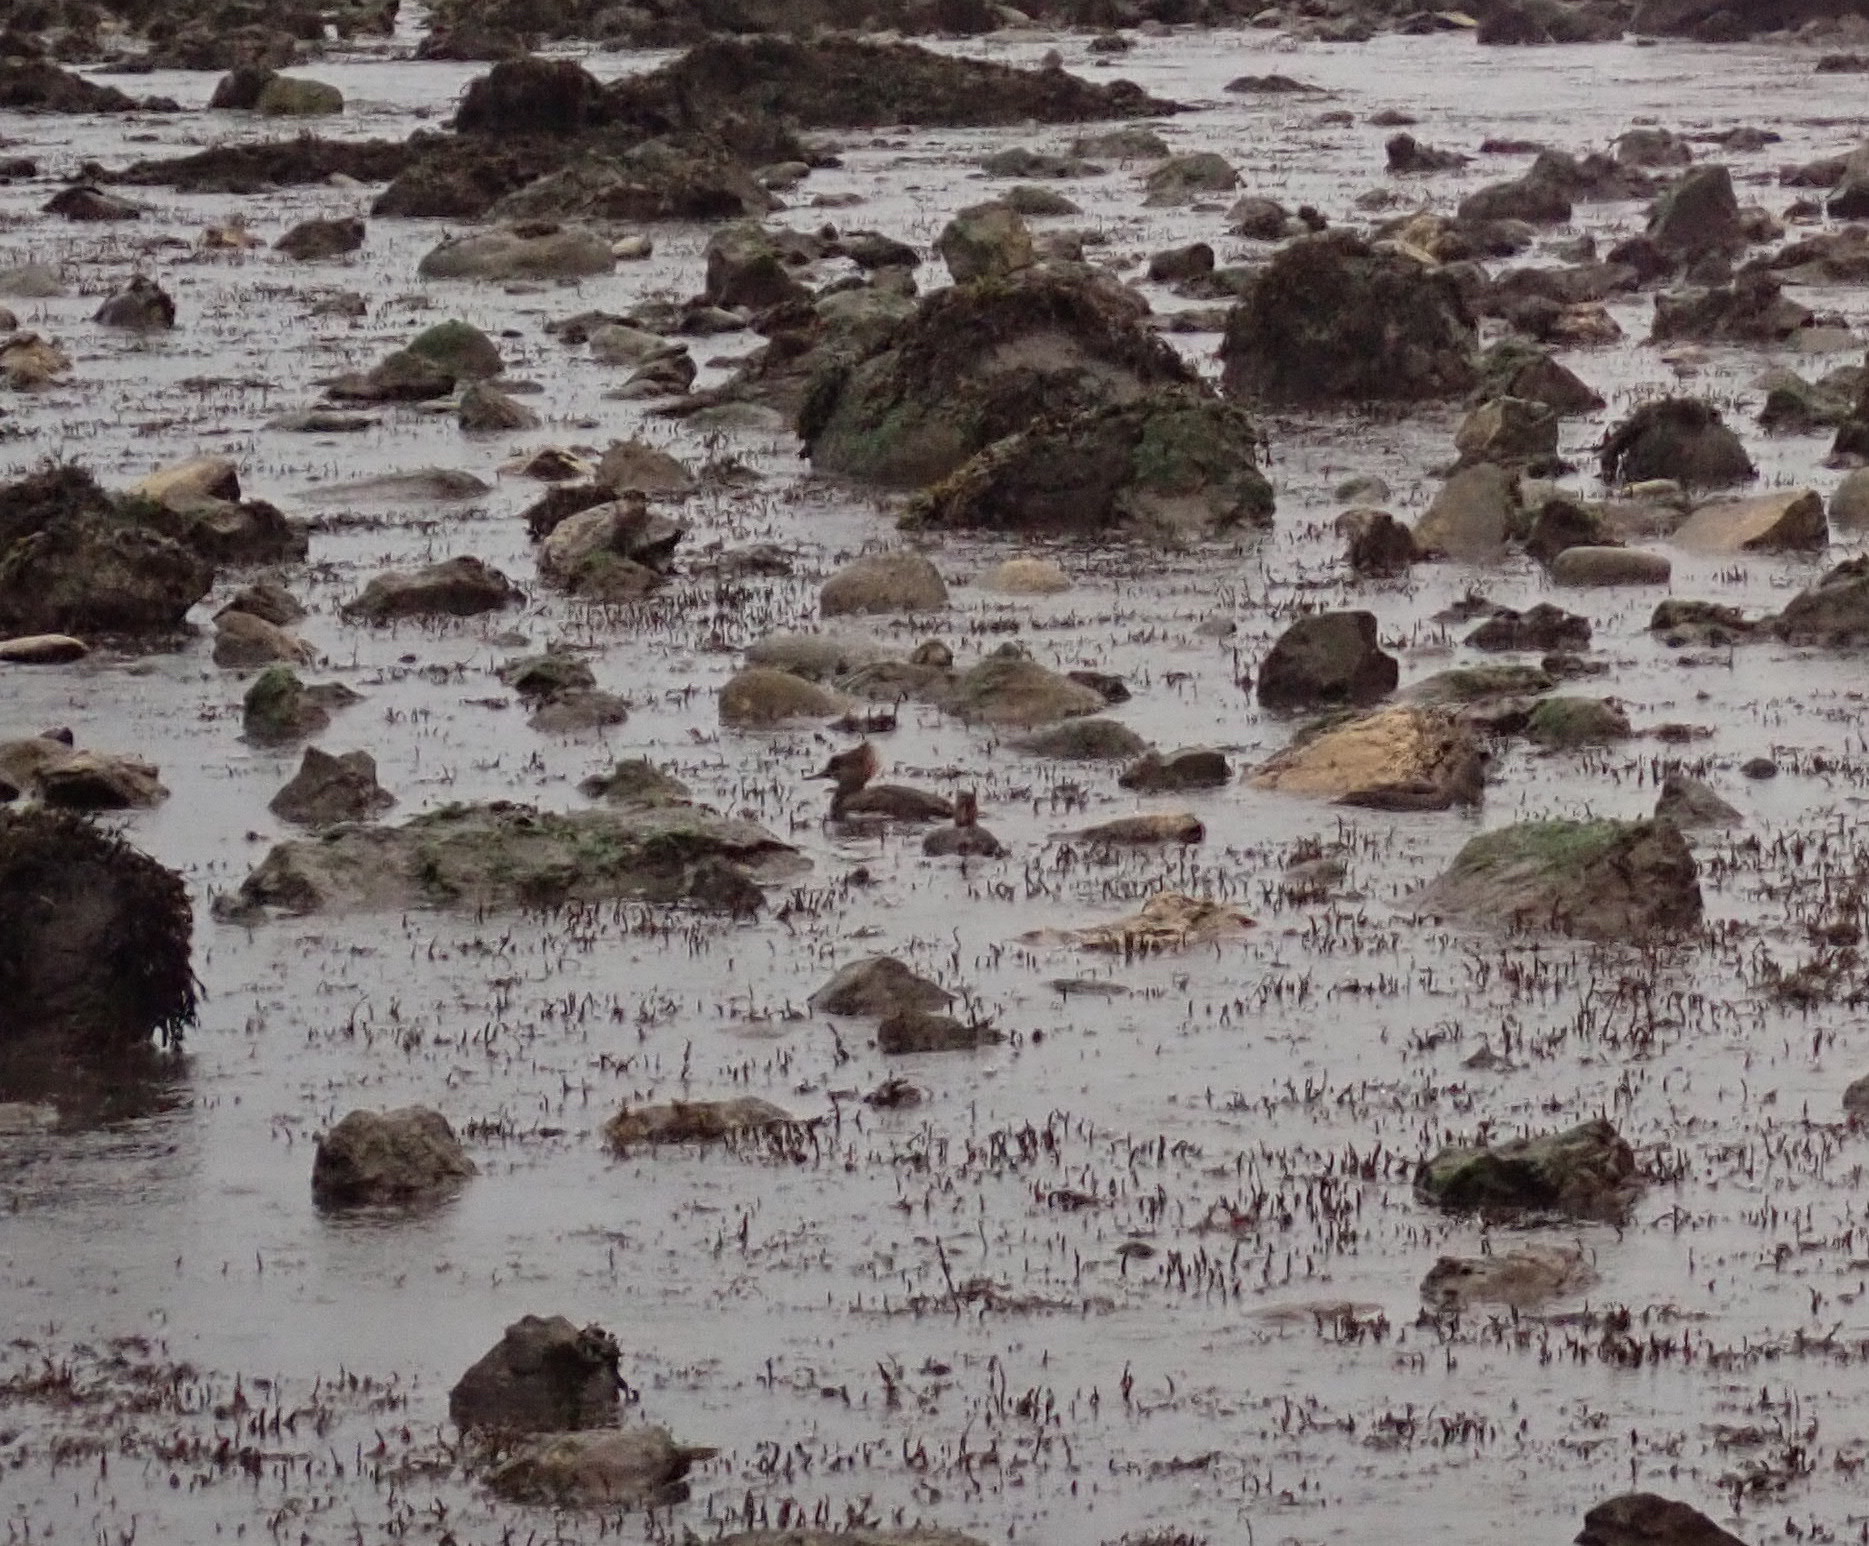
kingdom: Animalia
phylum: Chordata
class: Aves
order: Anseriformes
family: Anatidae
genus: Lophodytes
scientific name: Lophodytes cucullatus
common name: Hooded merganser
